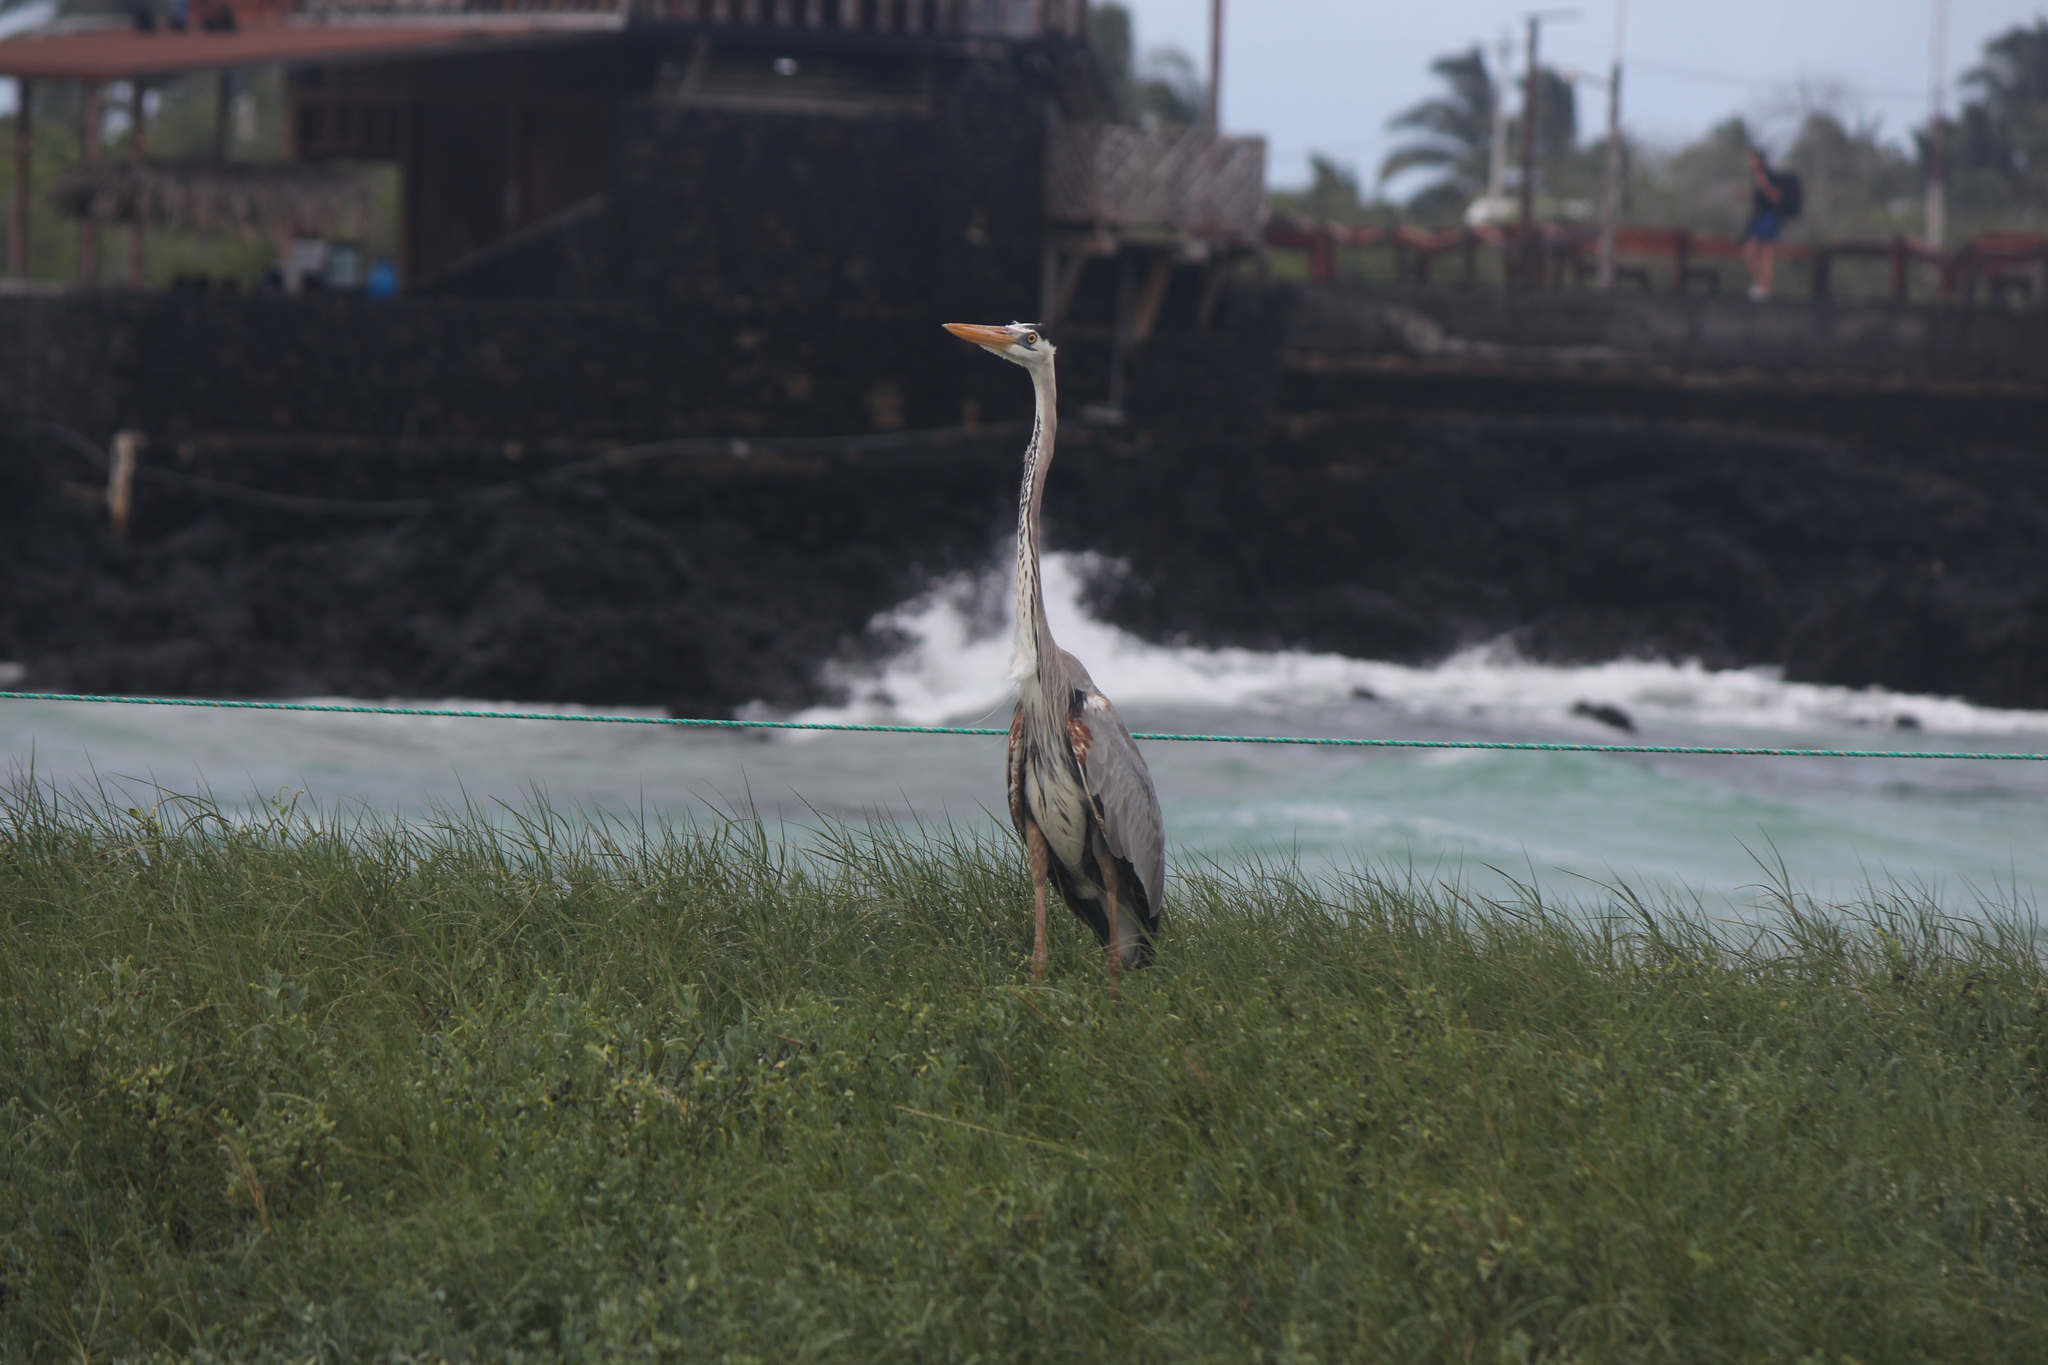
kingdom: Animalia
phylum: Chordata
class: Aves
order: Pelecaniformes
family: Ardeidae
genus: Ardea
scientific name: Ardea herodias
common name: Great blue heron
